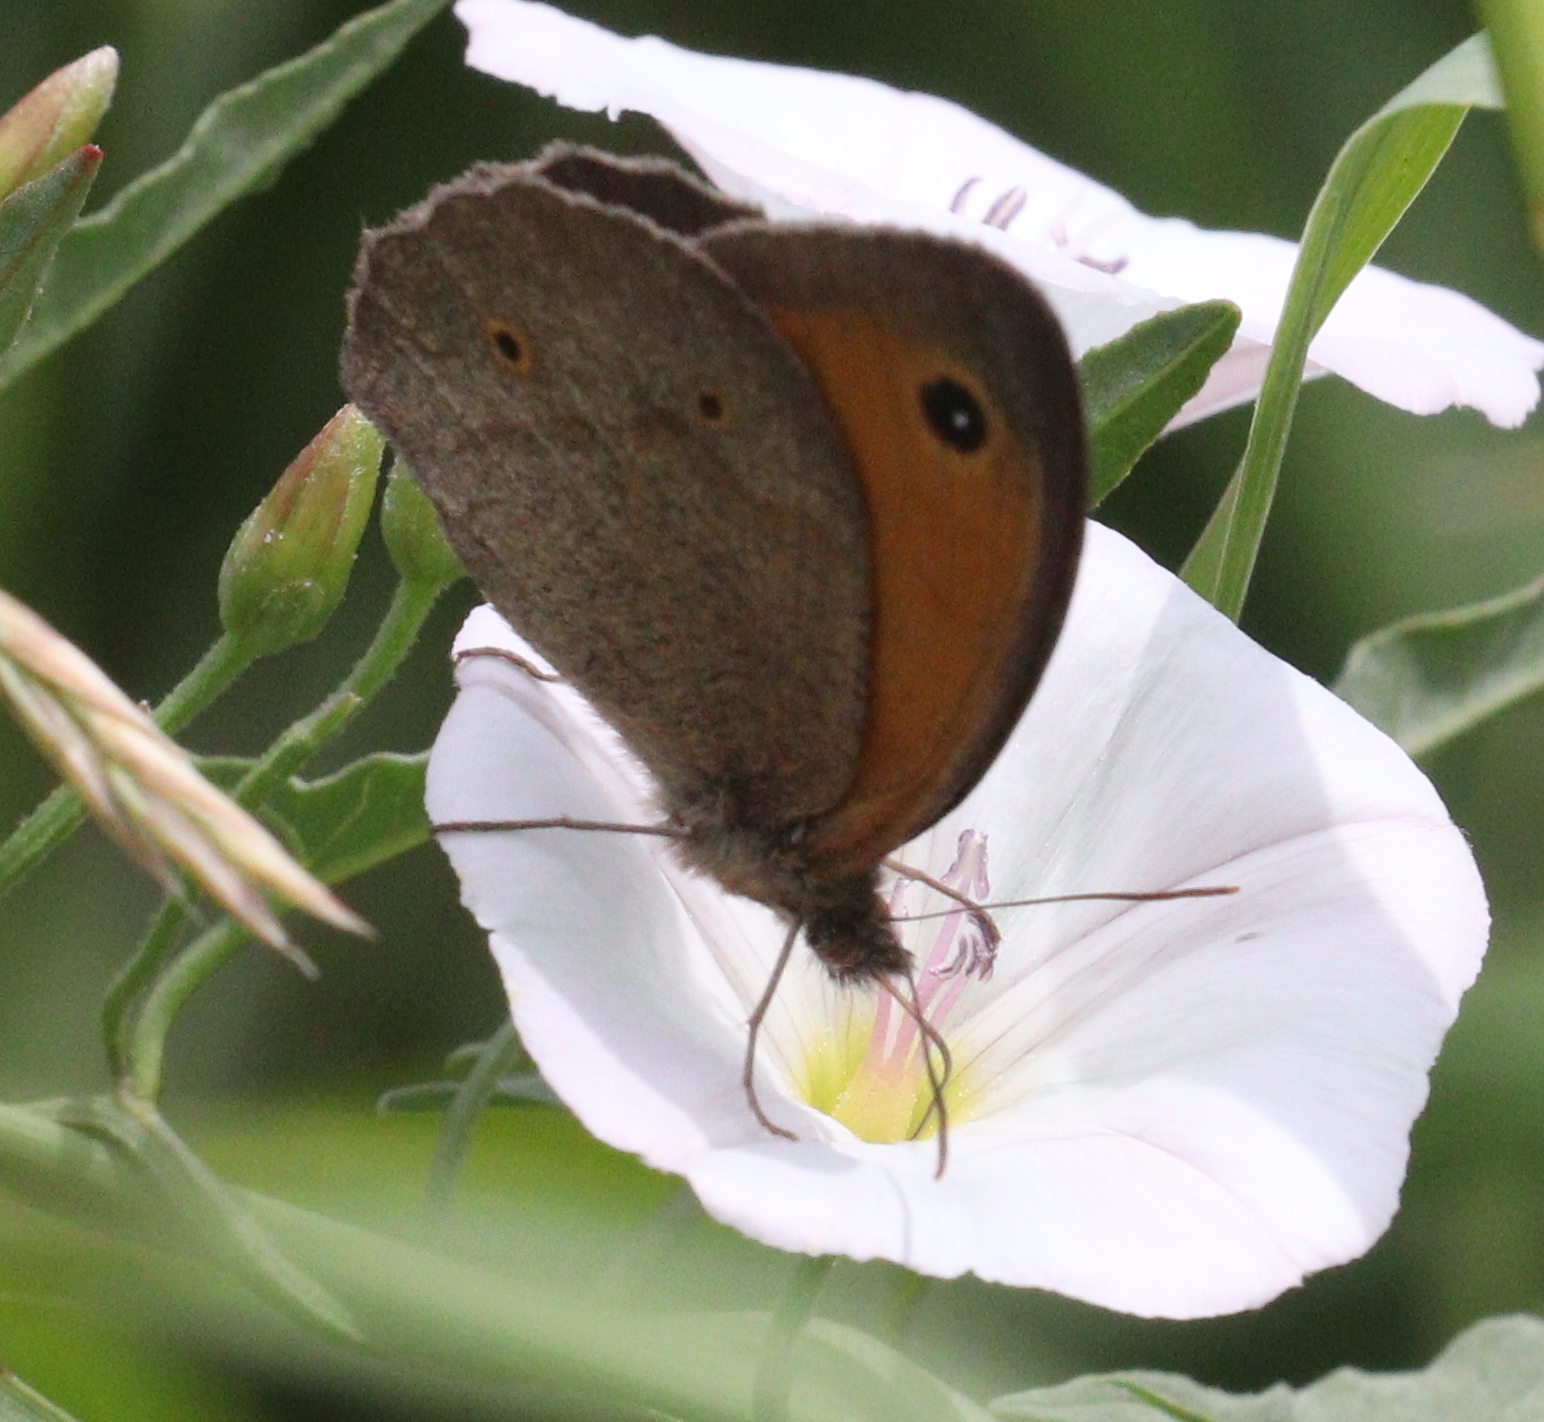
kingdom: Animalia
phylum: Arthropoda
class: Insecta
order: Lepidoptera
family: Nymphalidae
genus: Maniola
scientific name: Maniola jurtina
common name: Meadow brown
